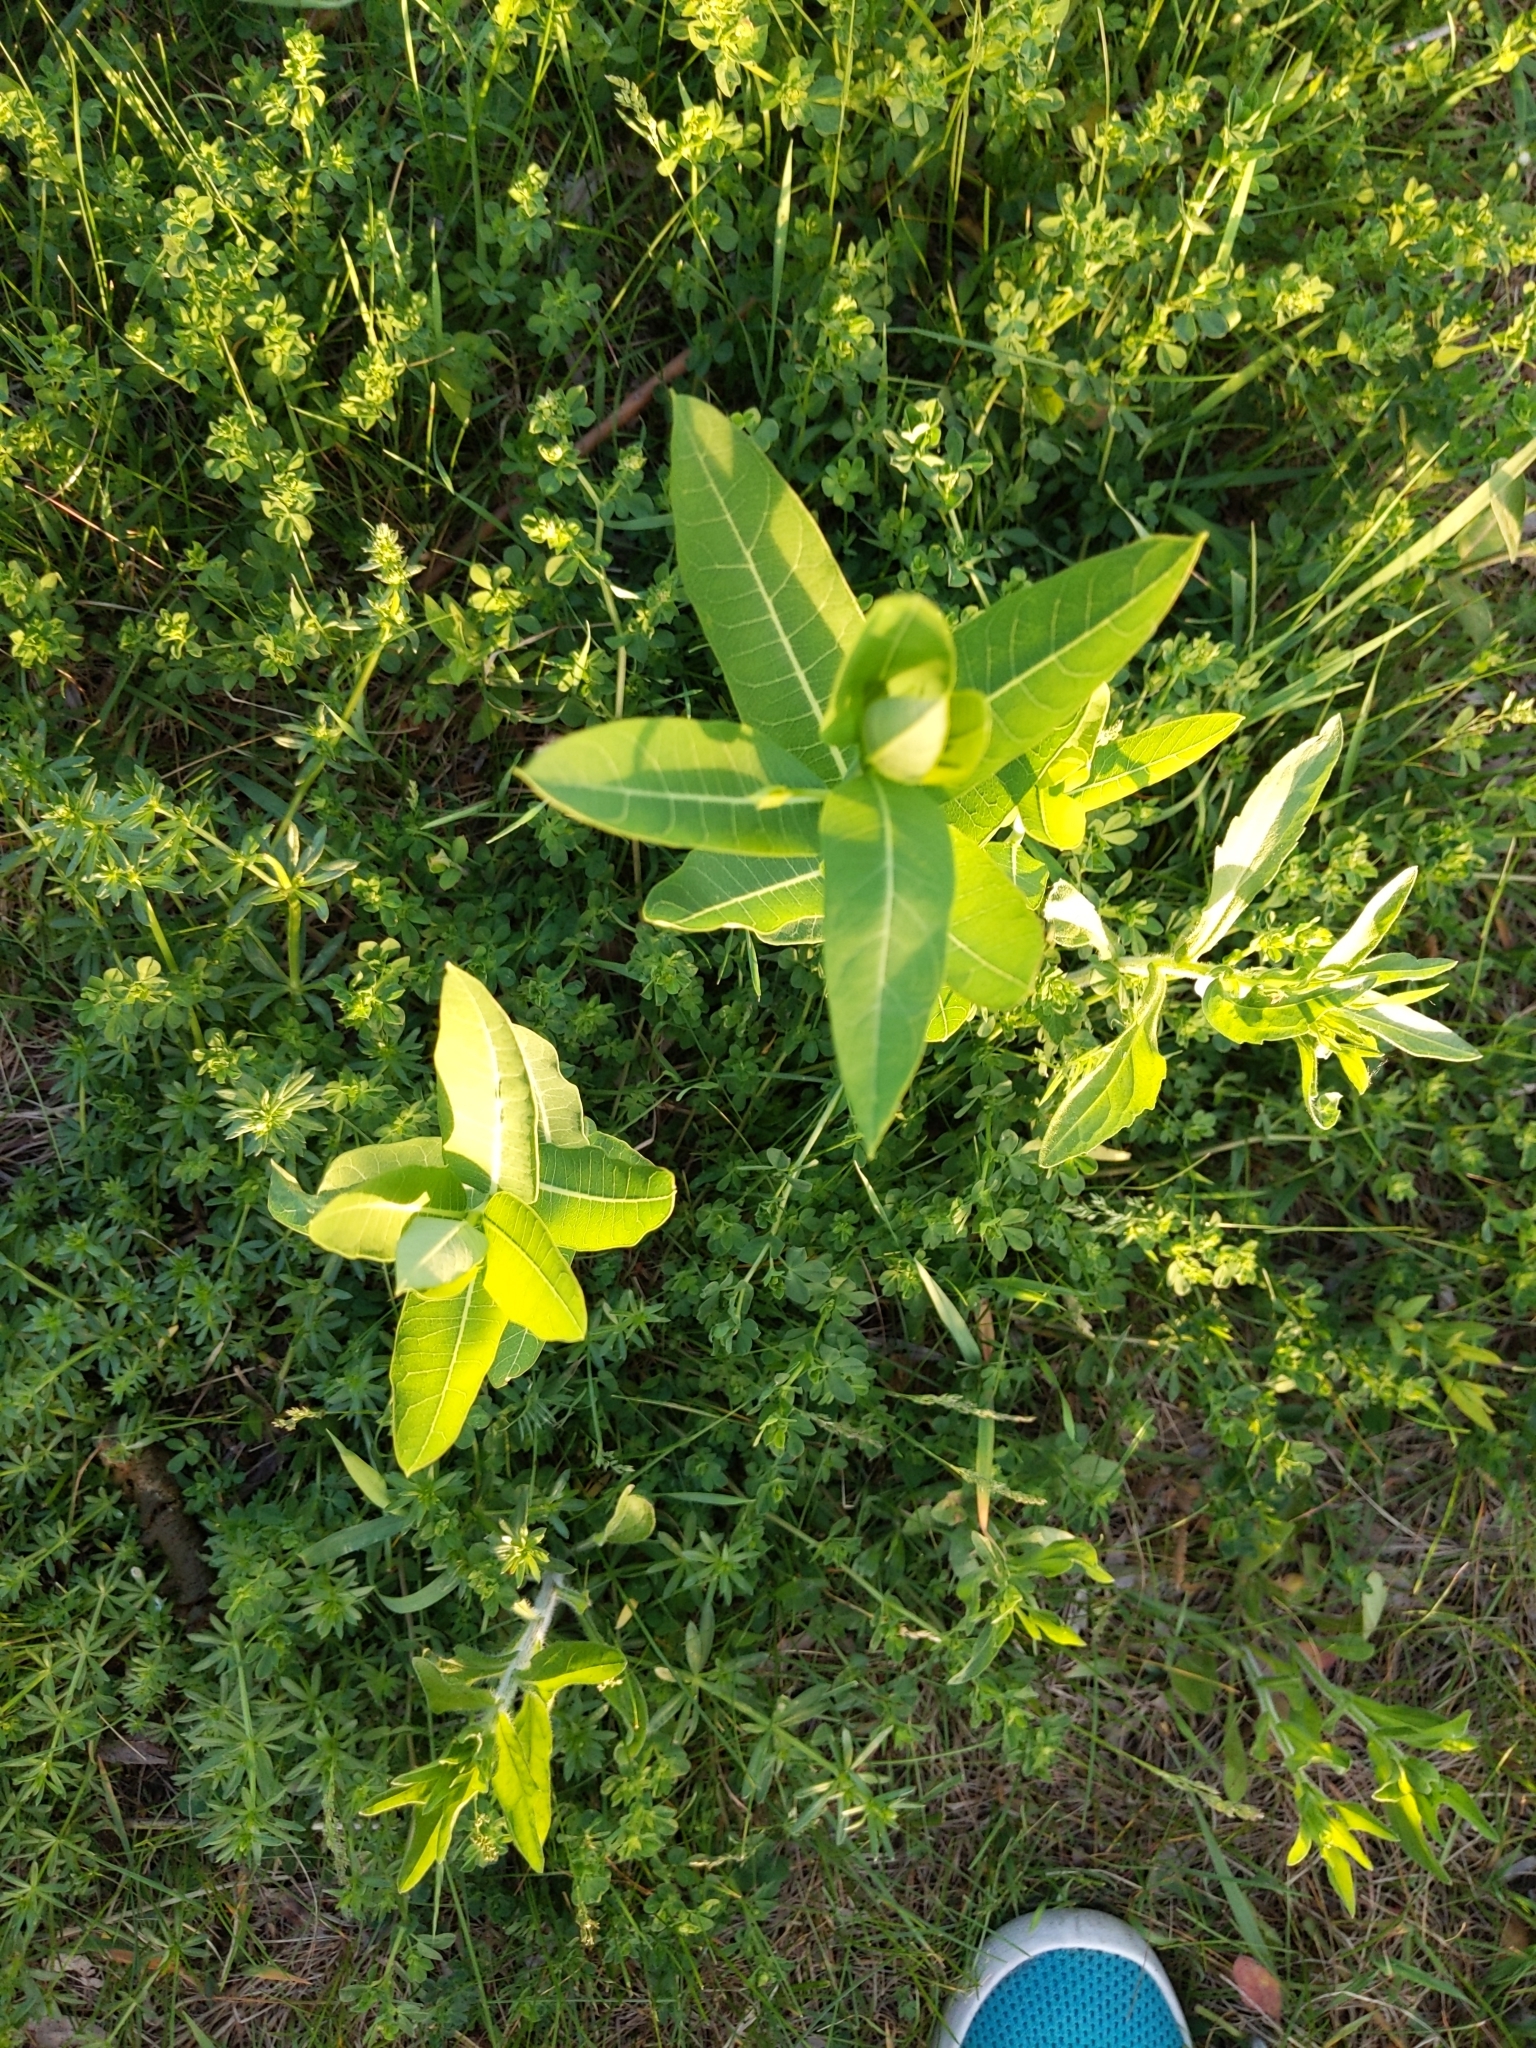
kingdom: Plantae
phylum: Tracheophyta
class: Magnoliopsida
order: Gentianales
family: Apocynaceae
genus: Asclepias
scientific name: Asclepias syriaca
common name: Common milkweed
